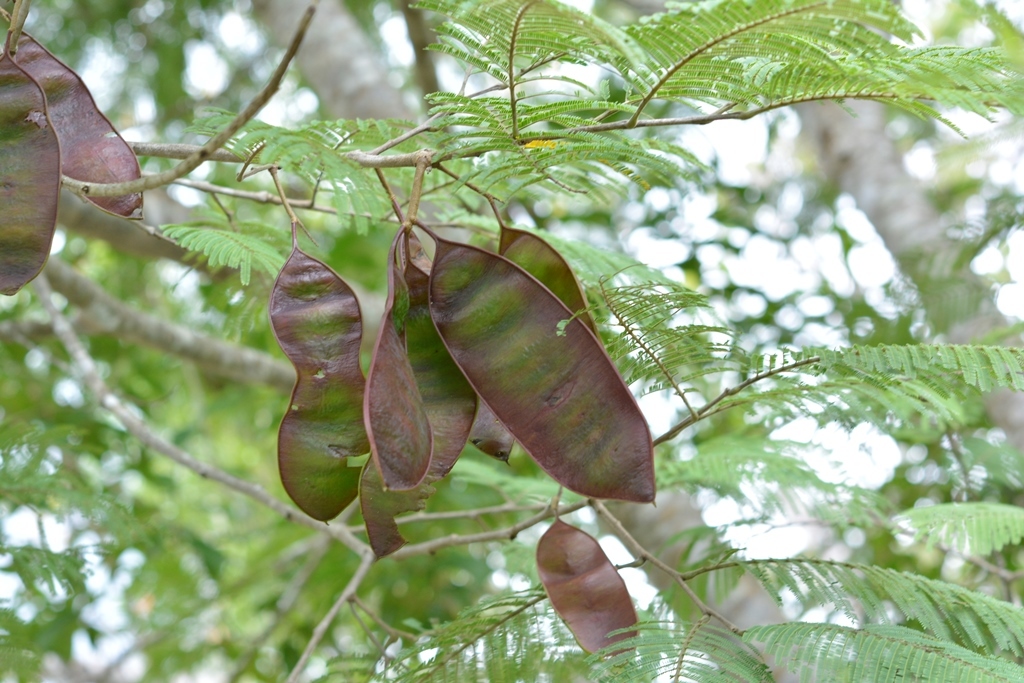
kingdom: Plantae
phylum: Tracheophyta
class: Magnoliopsida
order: Fabales
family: Fabaceae
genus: Lysiloma
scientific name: Lysiloma auritum
